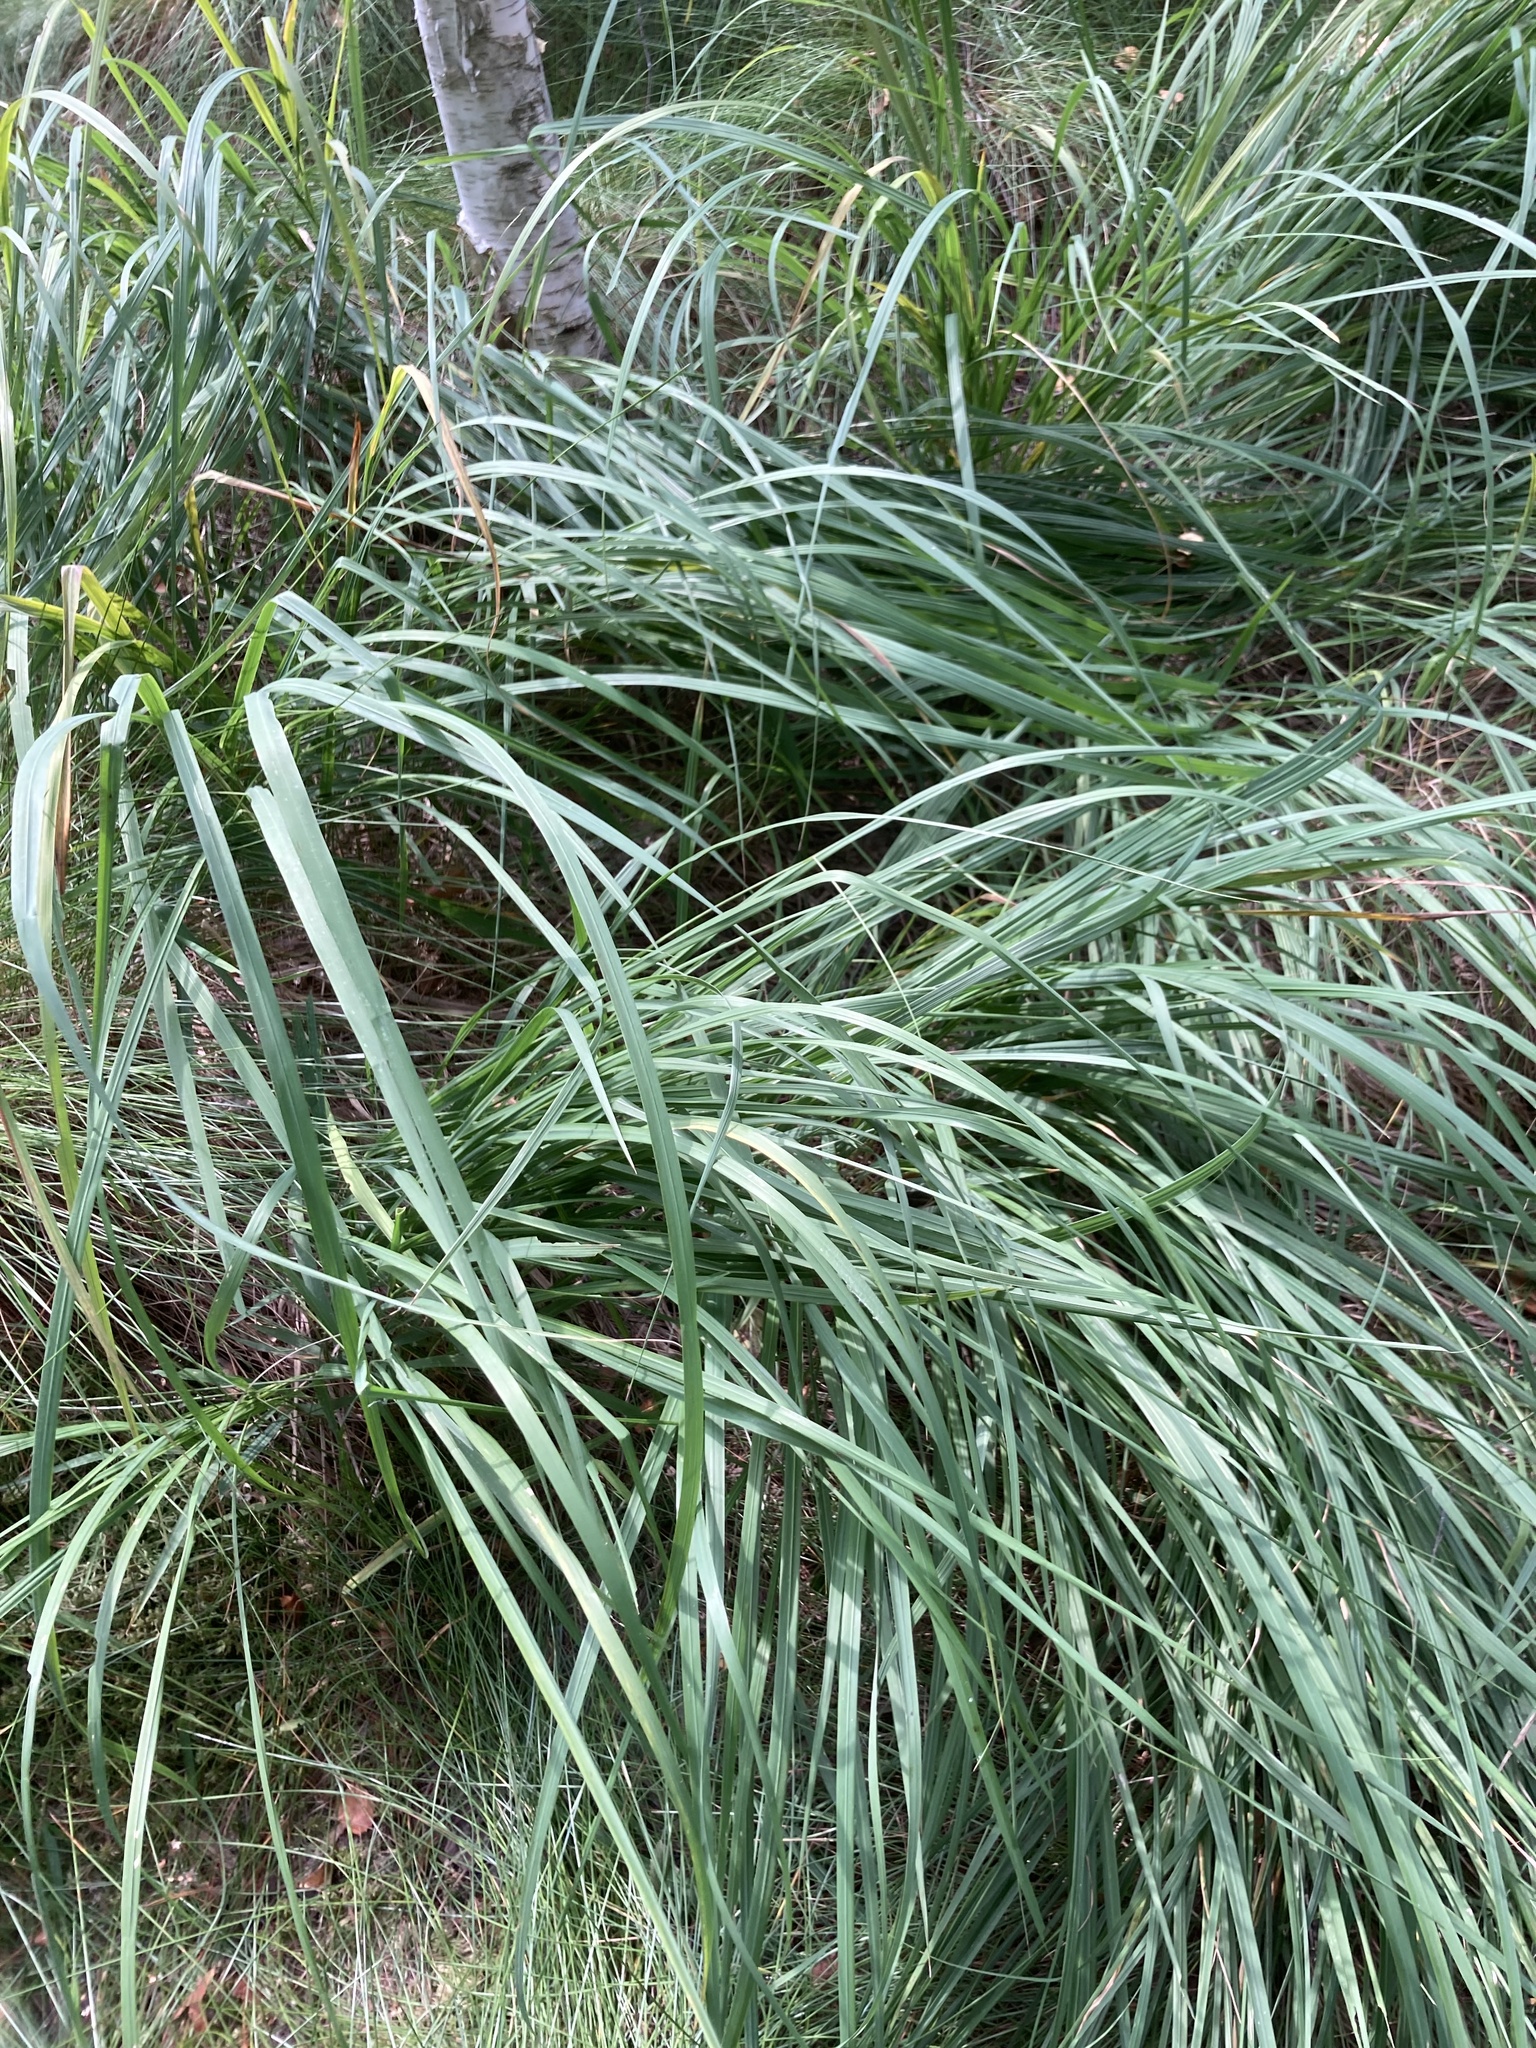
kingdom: Plantae
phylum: Tracheophyta
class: Liliopsida
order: Poales
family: Poaceae
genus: Molinia
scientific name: Molinia caerulea
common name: Purple moor-grass
